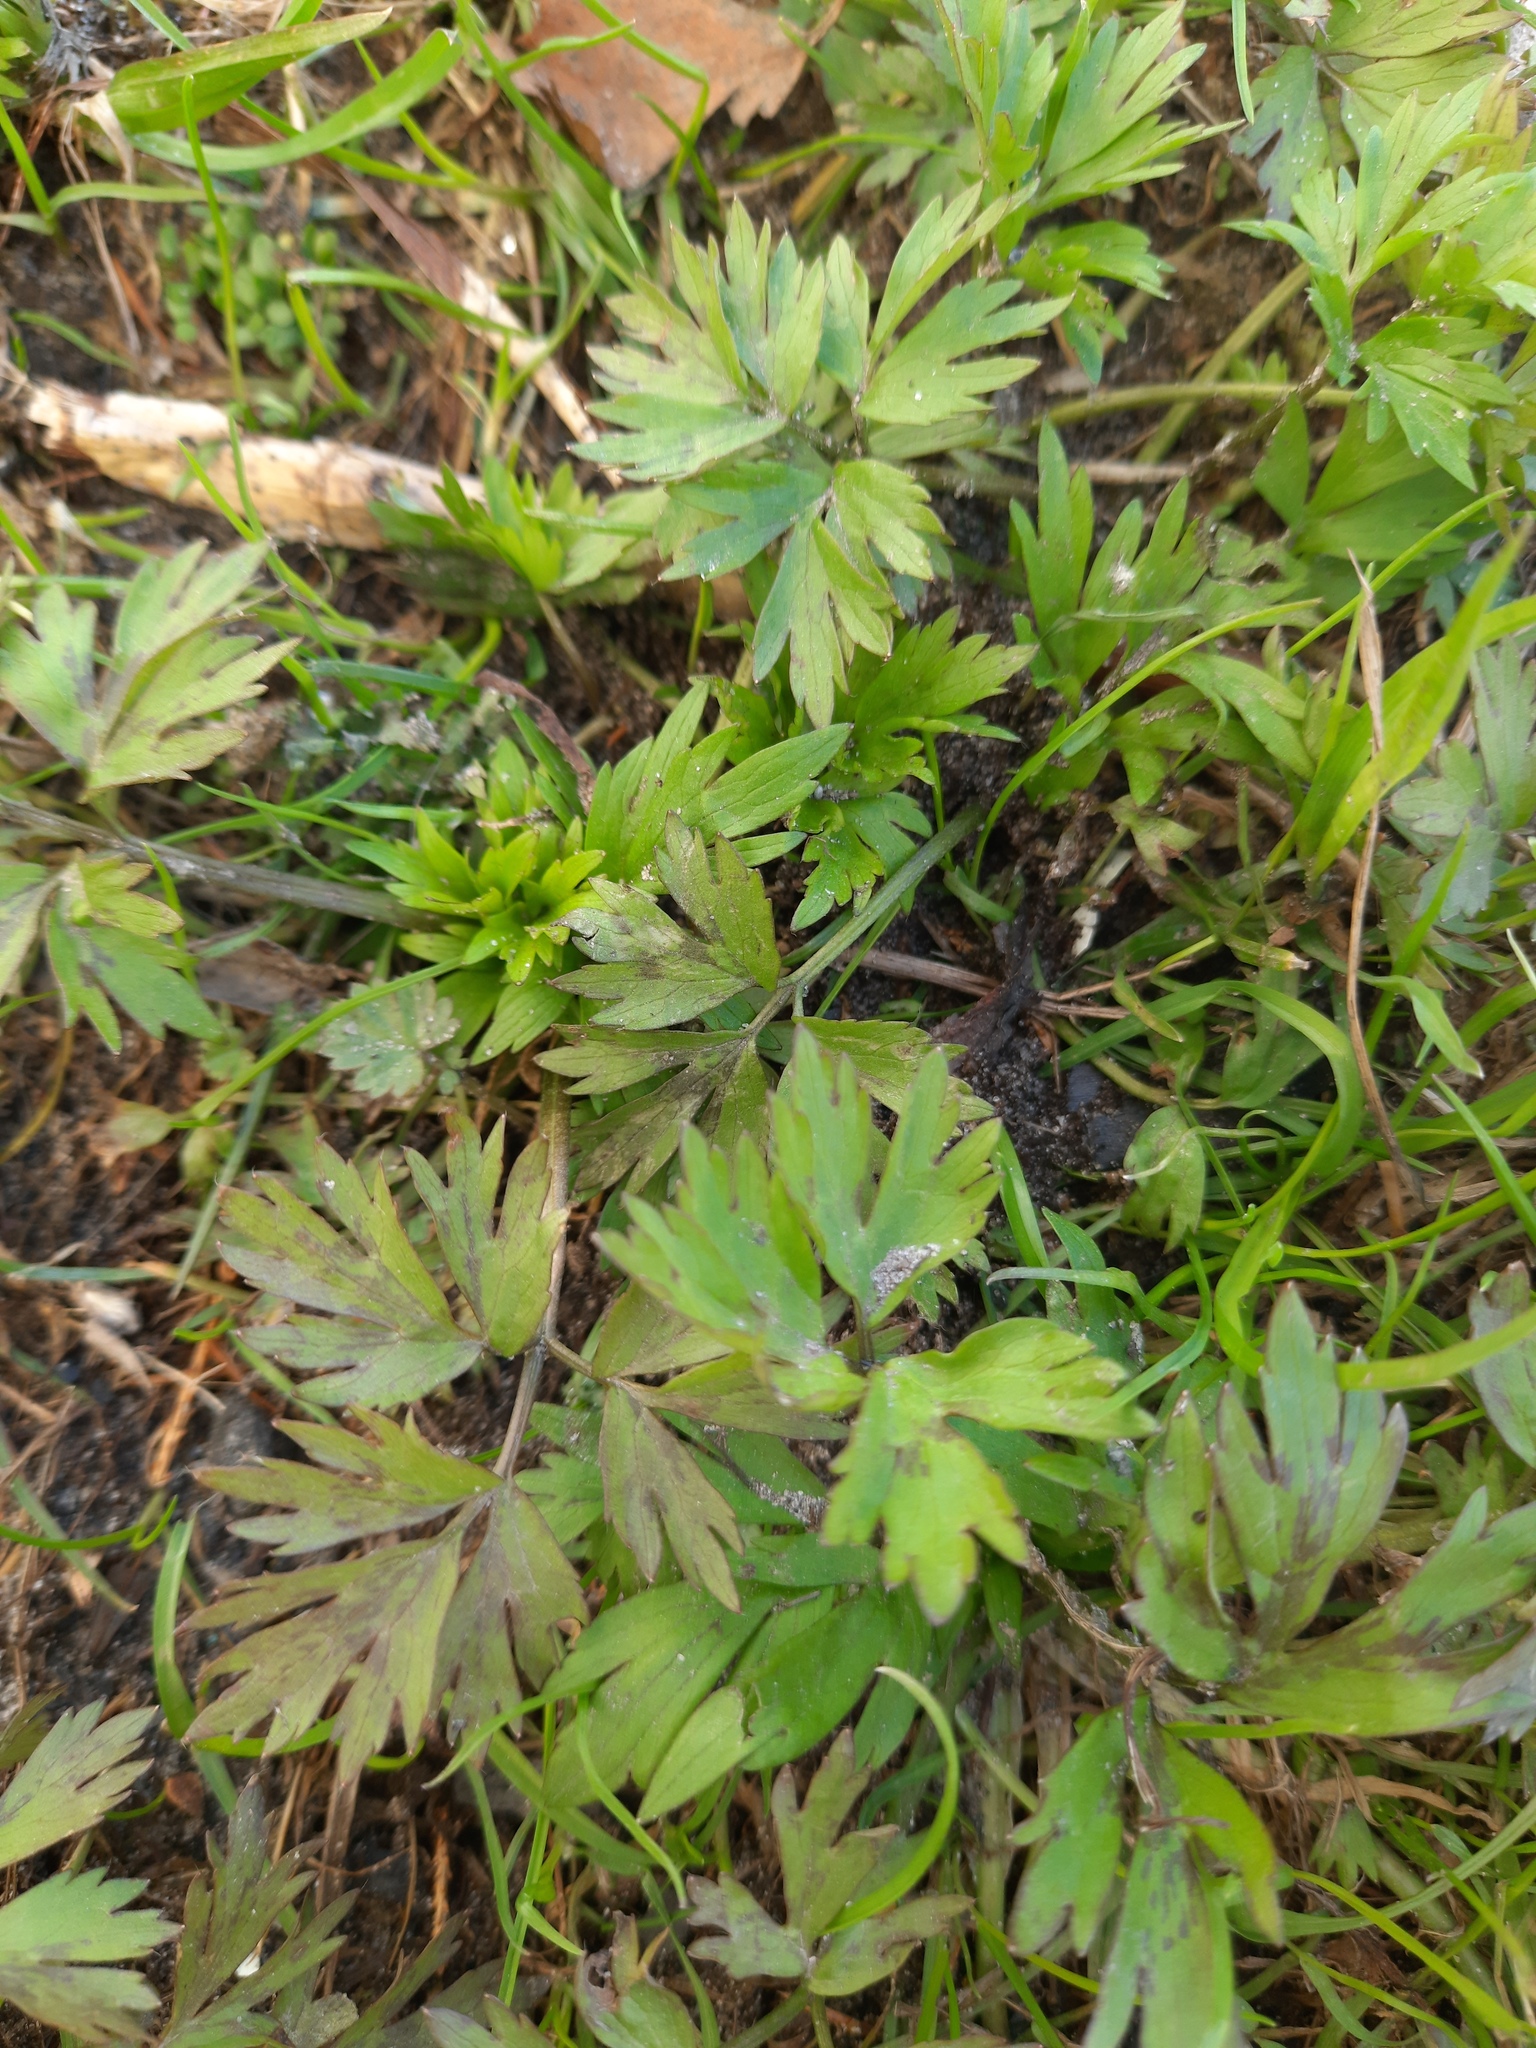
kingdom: Plantae
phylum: Tracheophyta
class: Magnoliopsida
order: Ranunculales
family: Ranunculaceae
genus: Ranunculus
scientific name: Ranunculus repens
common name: Creeping buttercup
